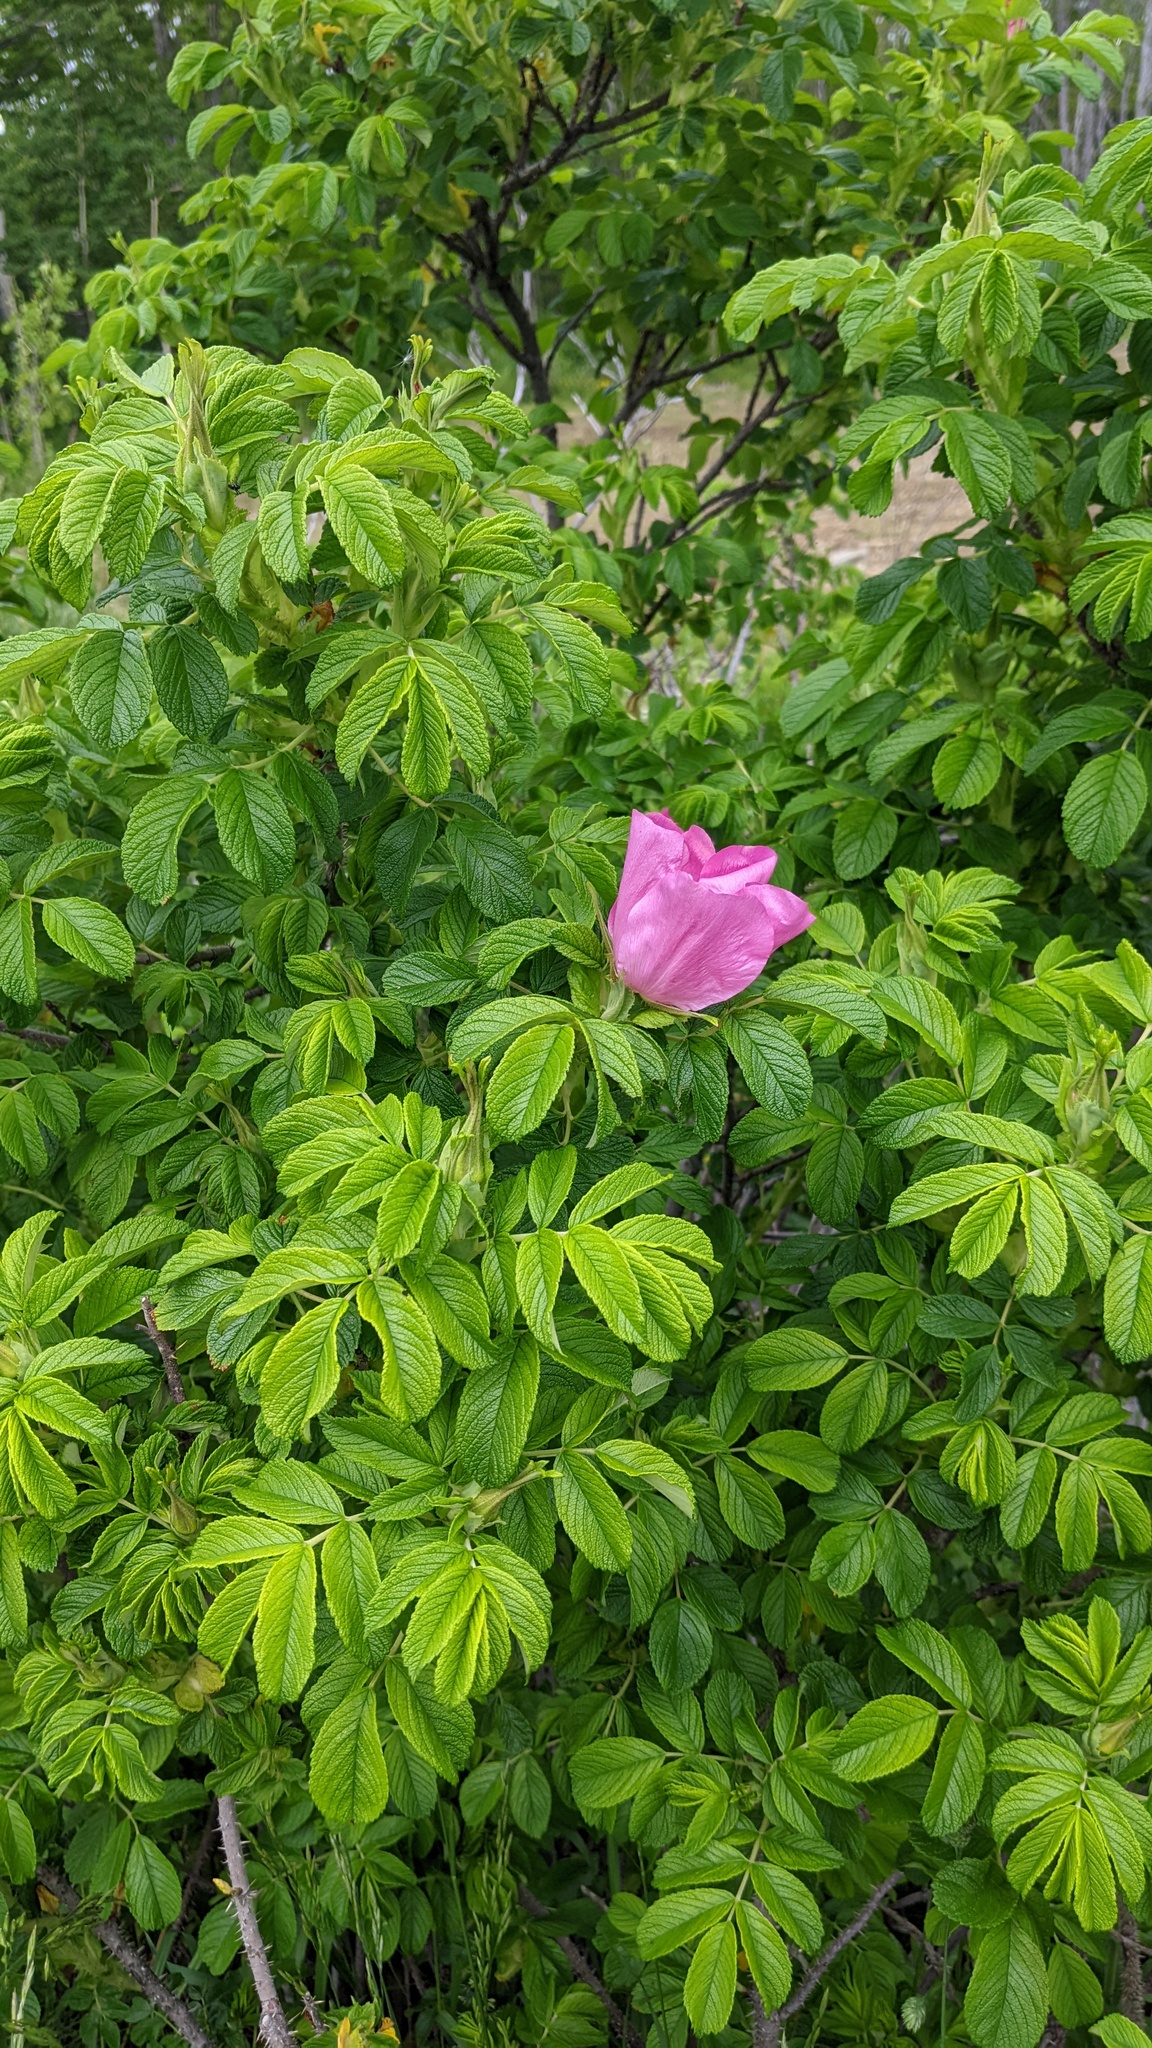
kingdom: Plantae
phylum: Tracheophyta
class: Magnoliopsida
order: Rosales
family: Rosaceae
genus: Rosa
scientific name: Rosa rugosa
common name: Japanese rose
